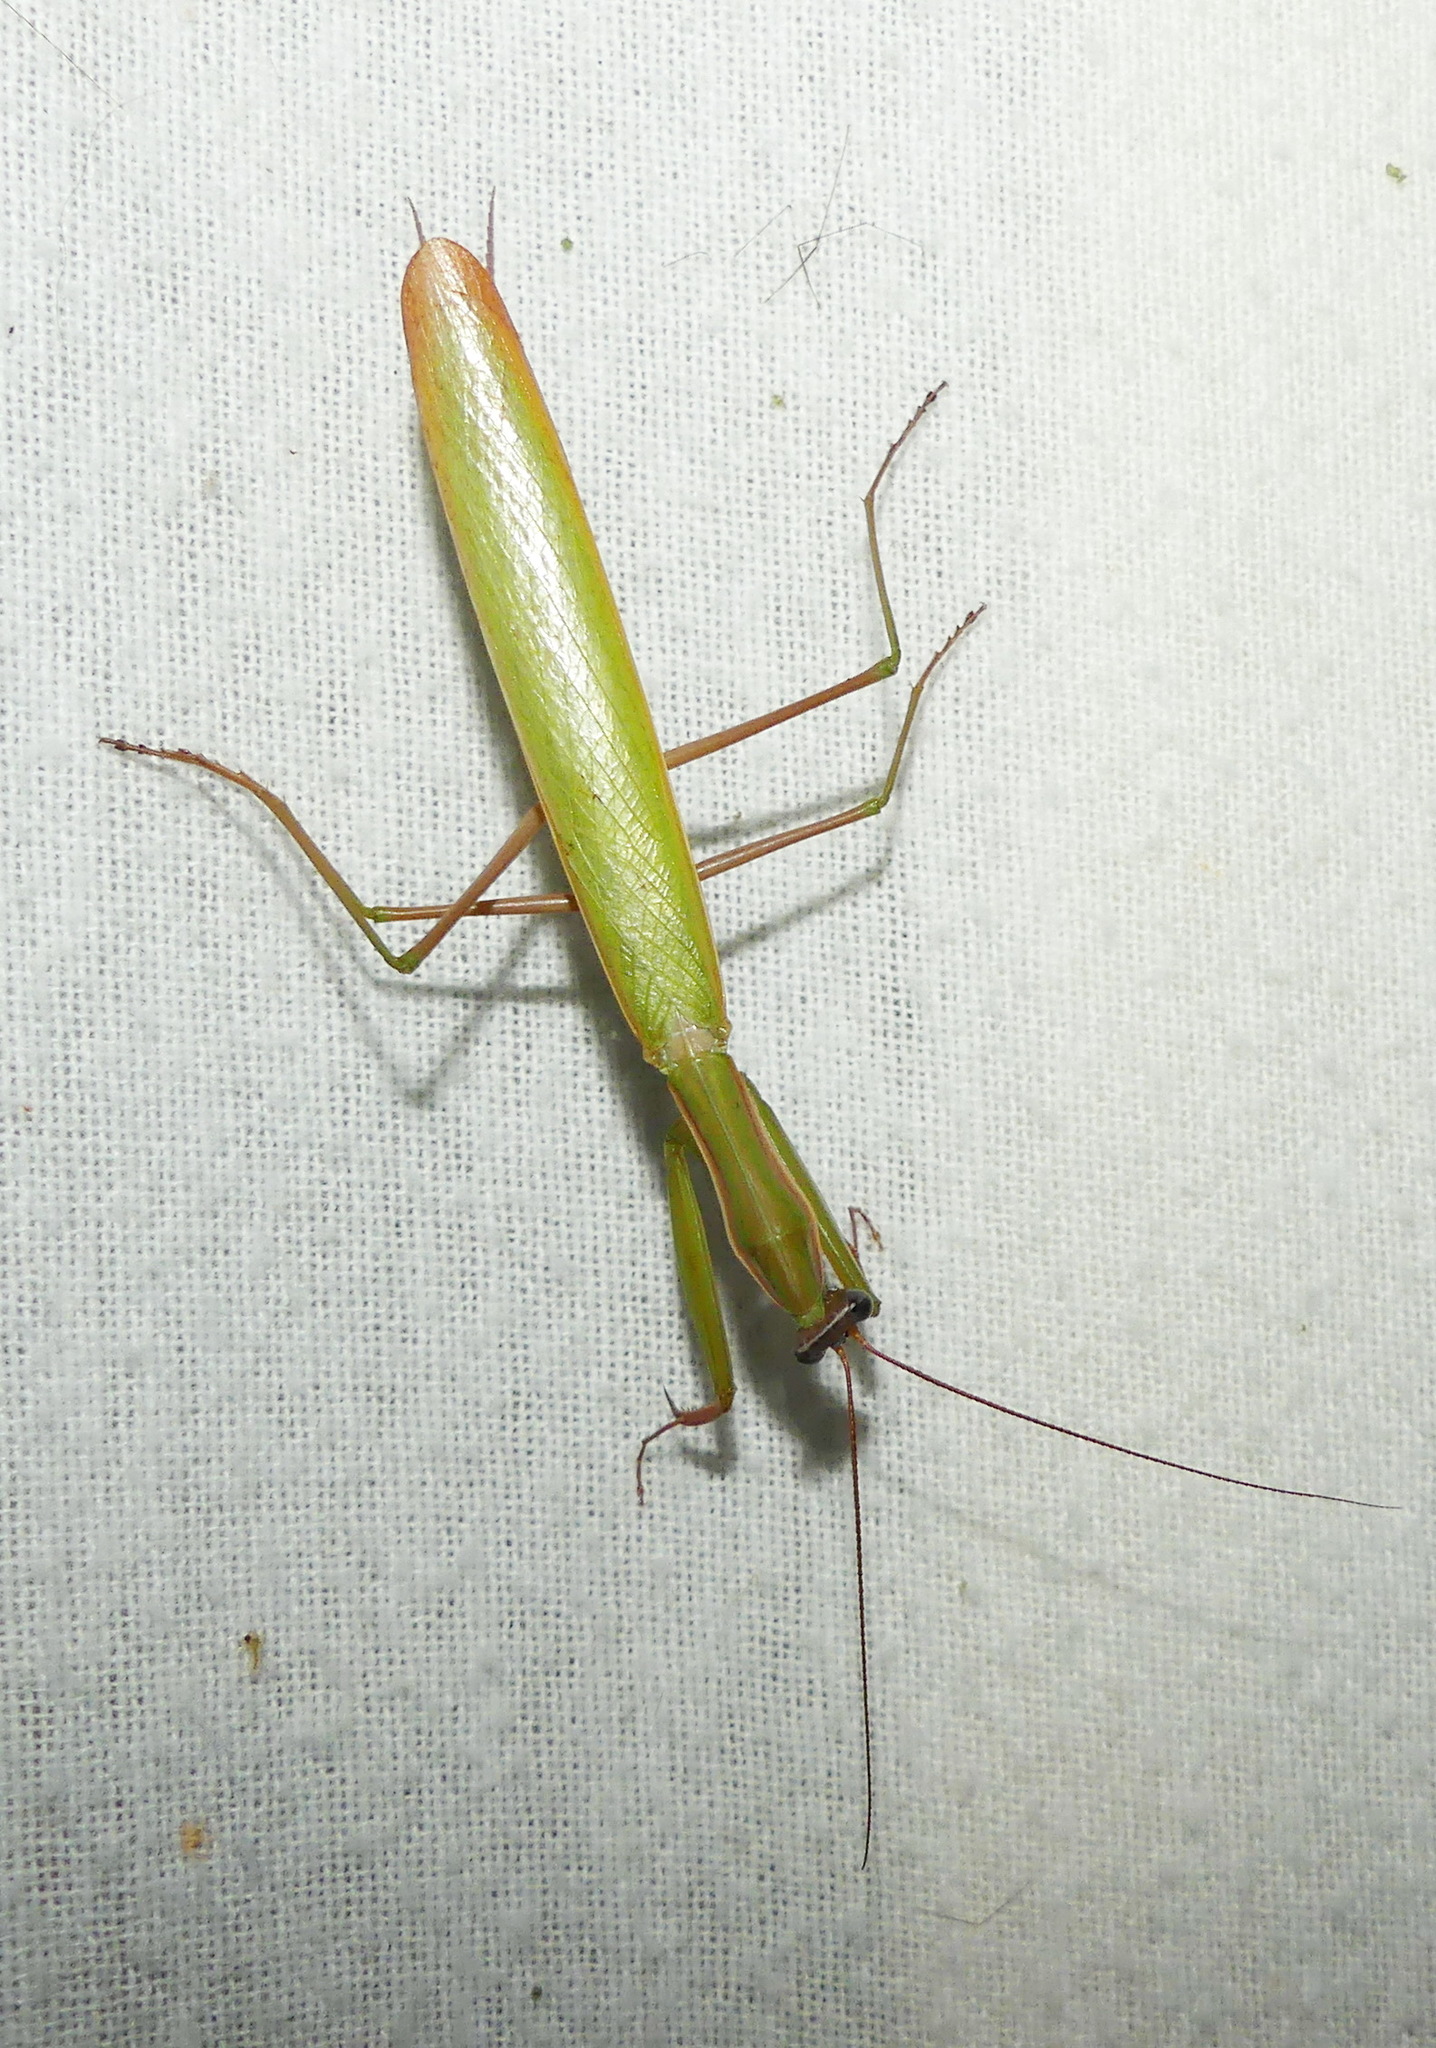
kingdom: Animalia
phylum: Arthropoda
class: Insecta
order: Mantodea
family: Mantidae
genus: Mantis
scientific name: Mantis religiosa
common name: Praying mantis
